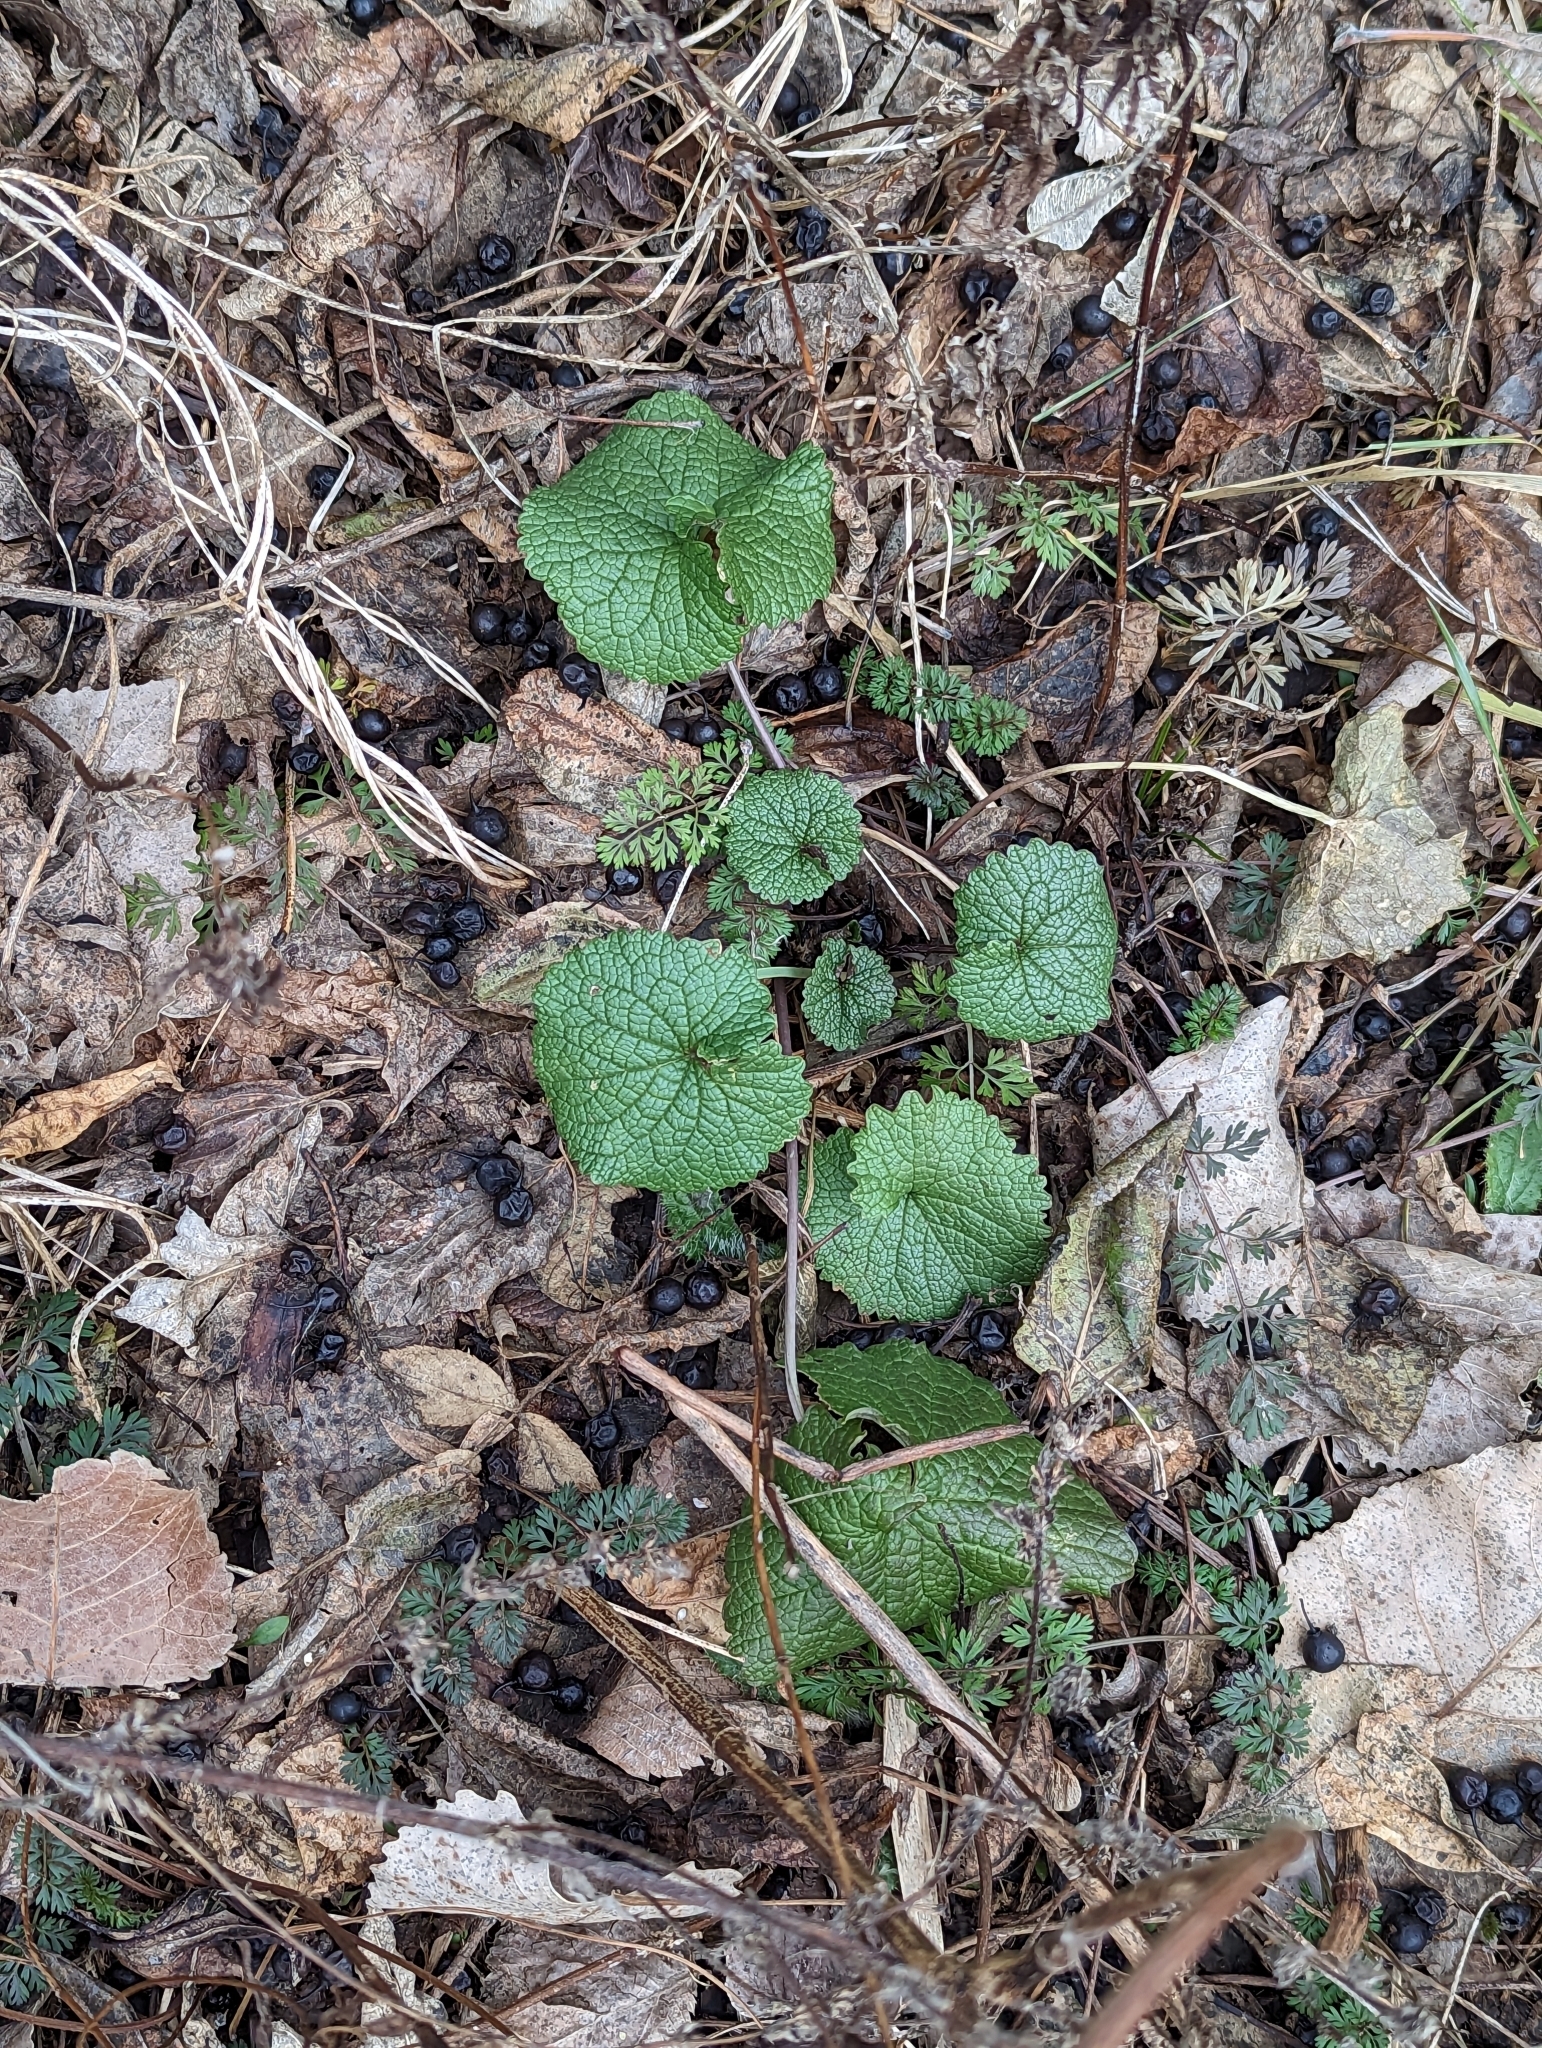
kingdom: Plantae
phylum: Tracheophyta
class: Magnoliopsida
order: Brassicales
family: Brassicaceae
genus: Alliaria
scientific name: Alliaria petiolata
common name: Garlic mustard
